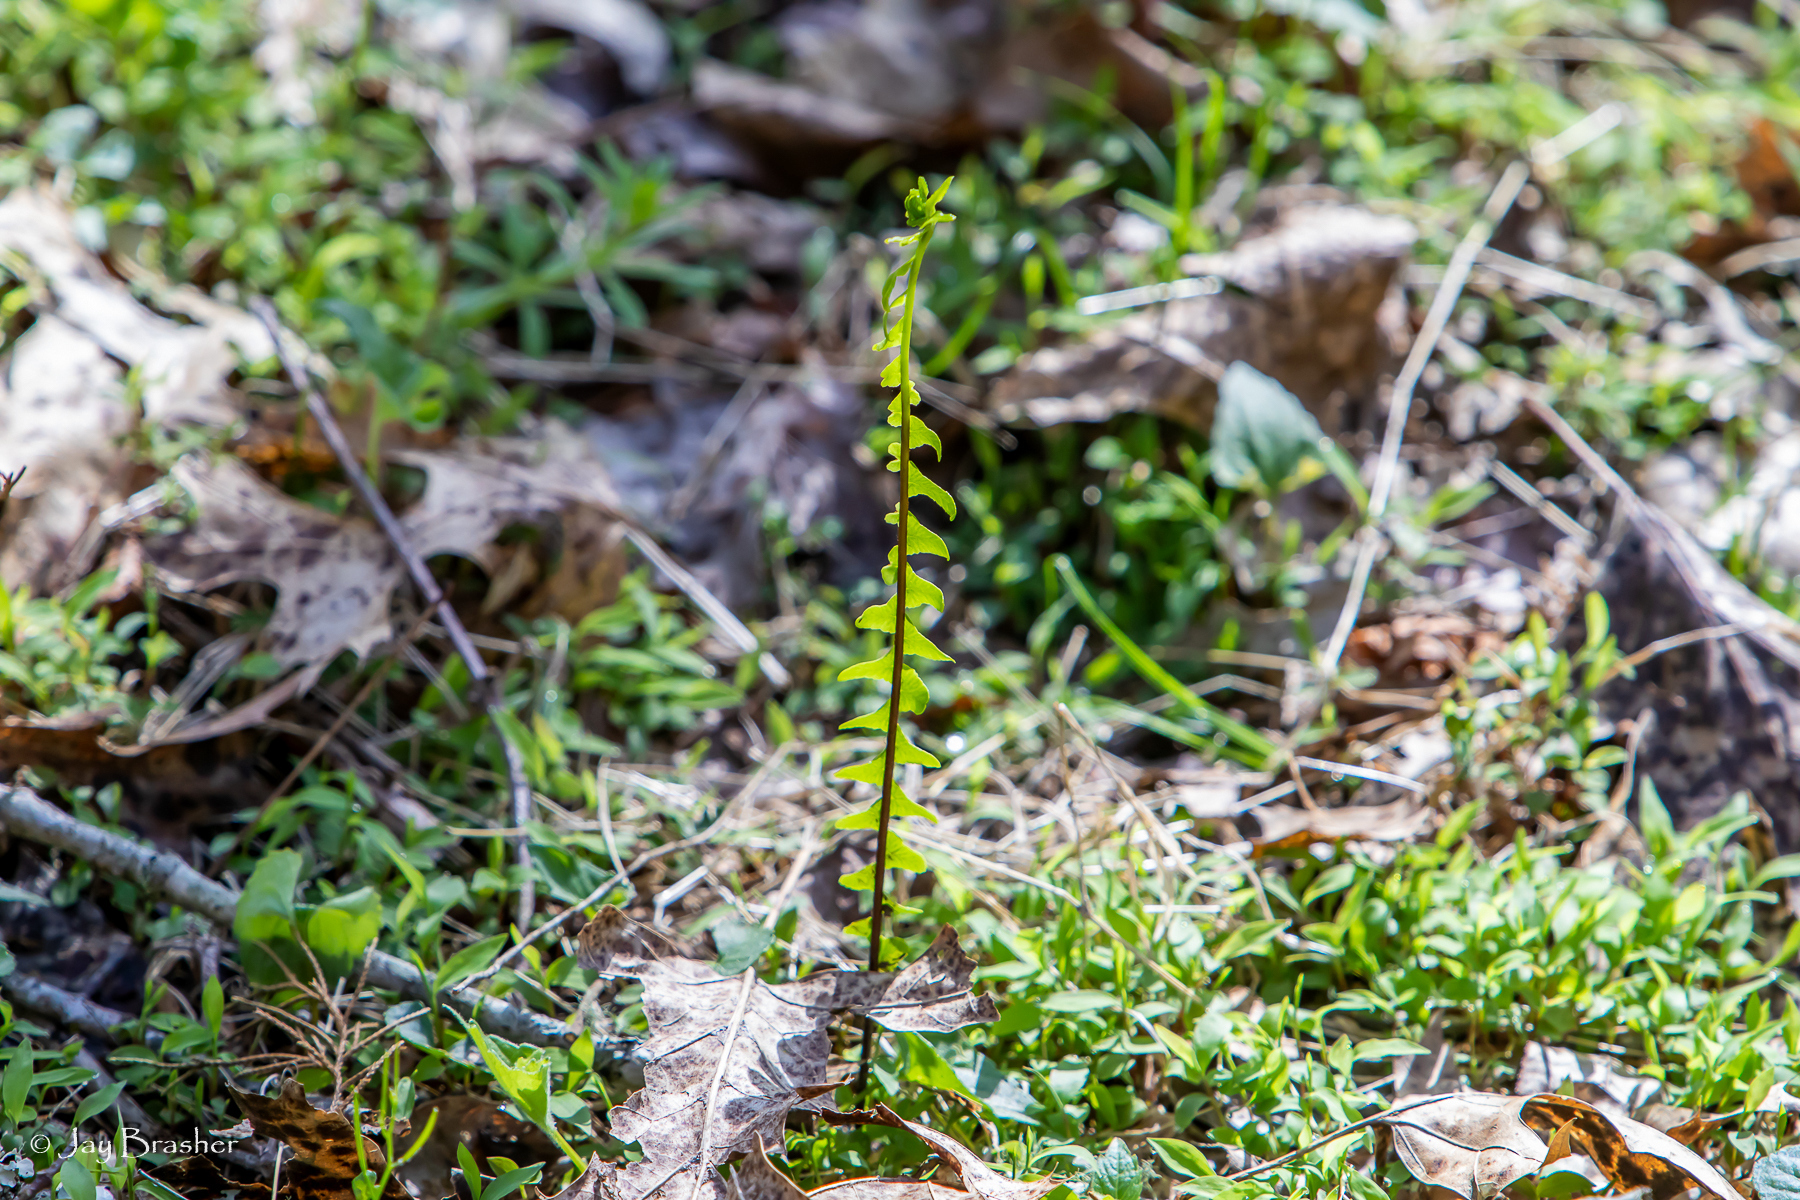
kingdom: Plantae
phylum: Tracheophyta
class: Polypodiopsida
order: Polypodiales
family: Aspleniaceae
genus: Asplenium
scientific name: Asplenium platyneuron
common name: Ebony spleenwort
